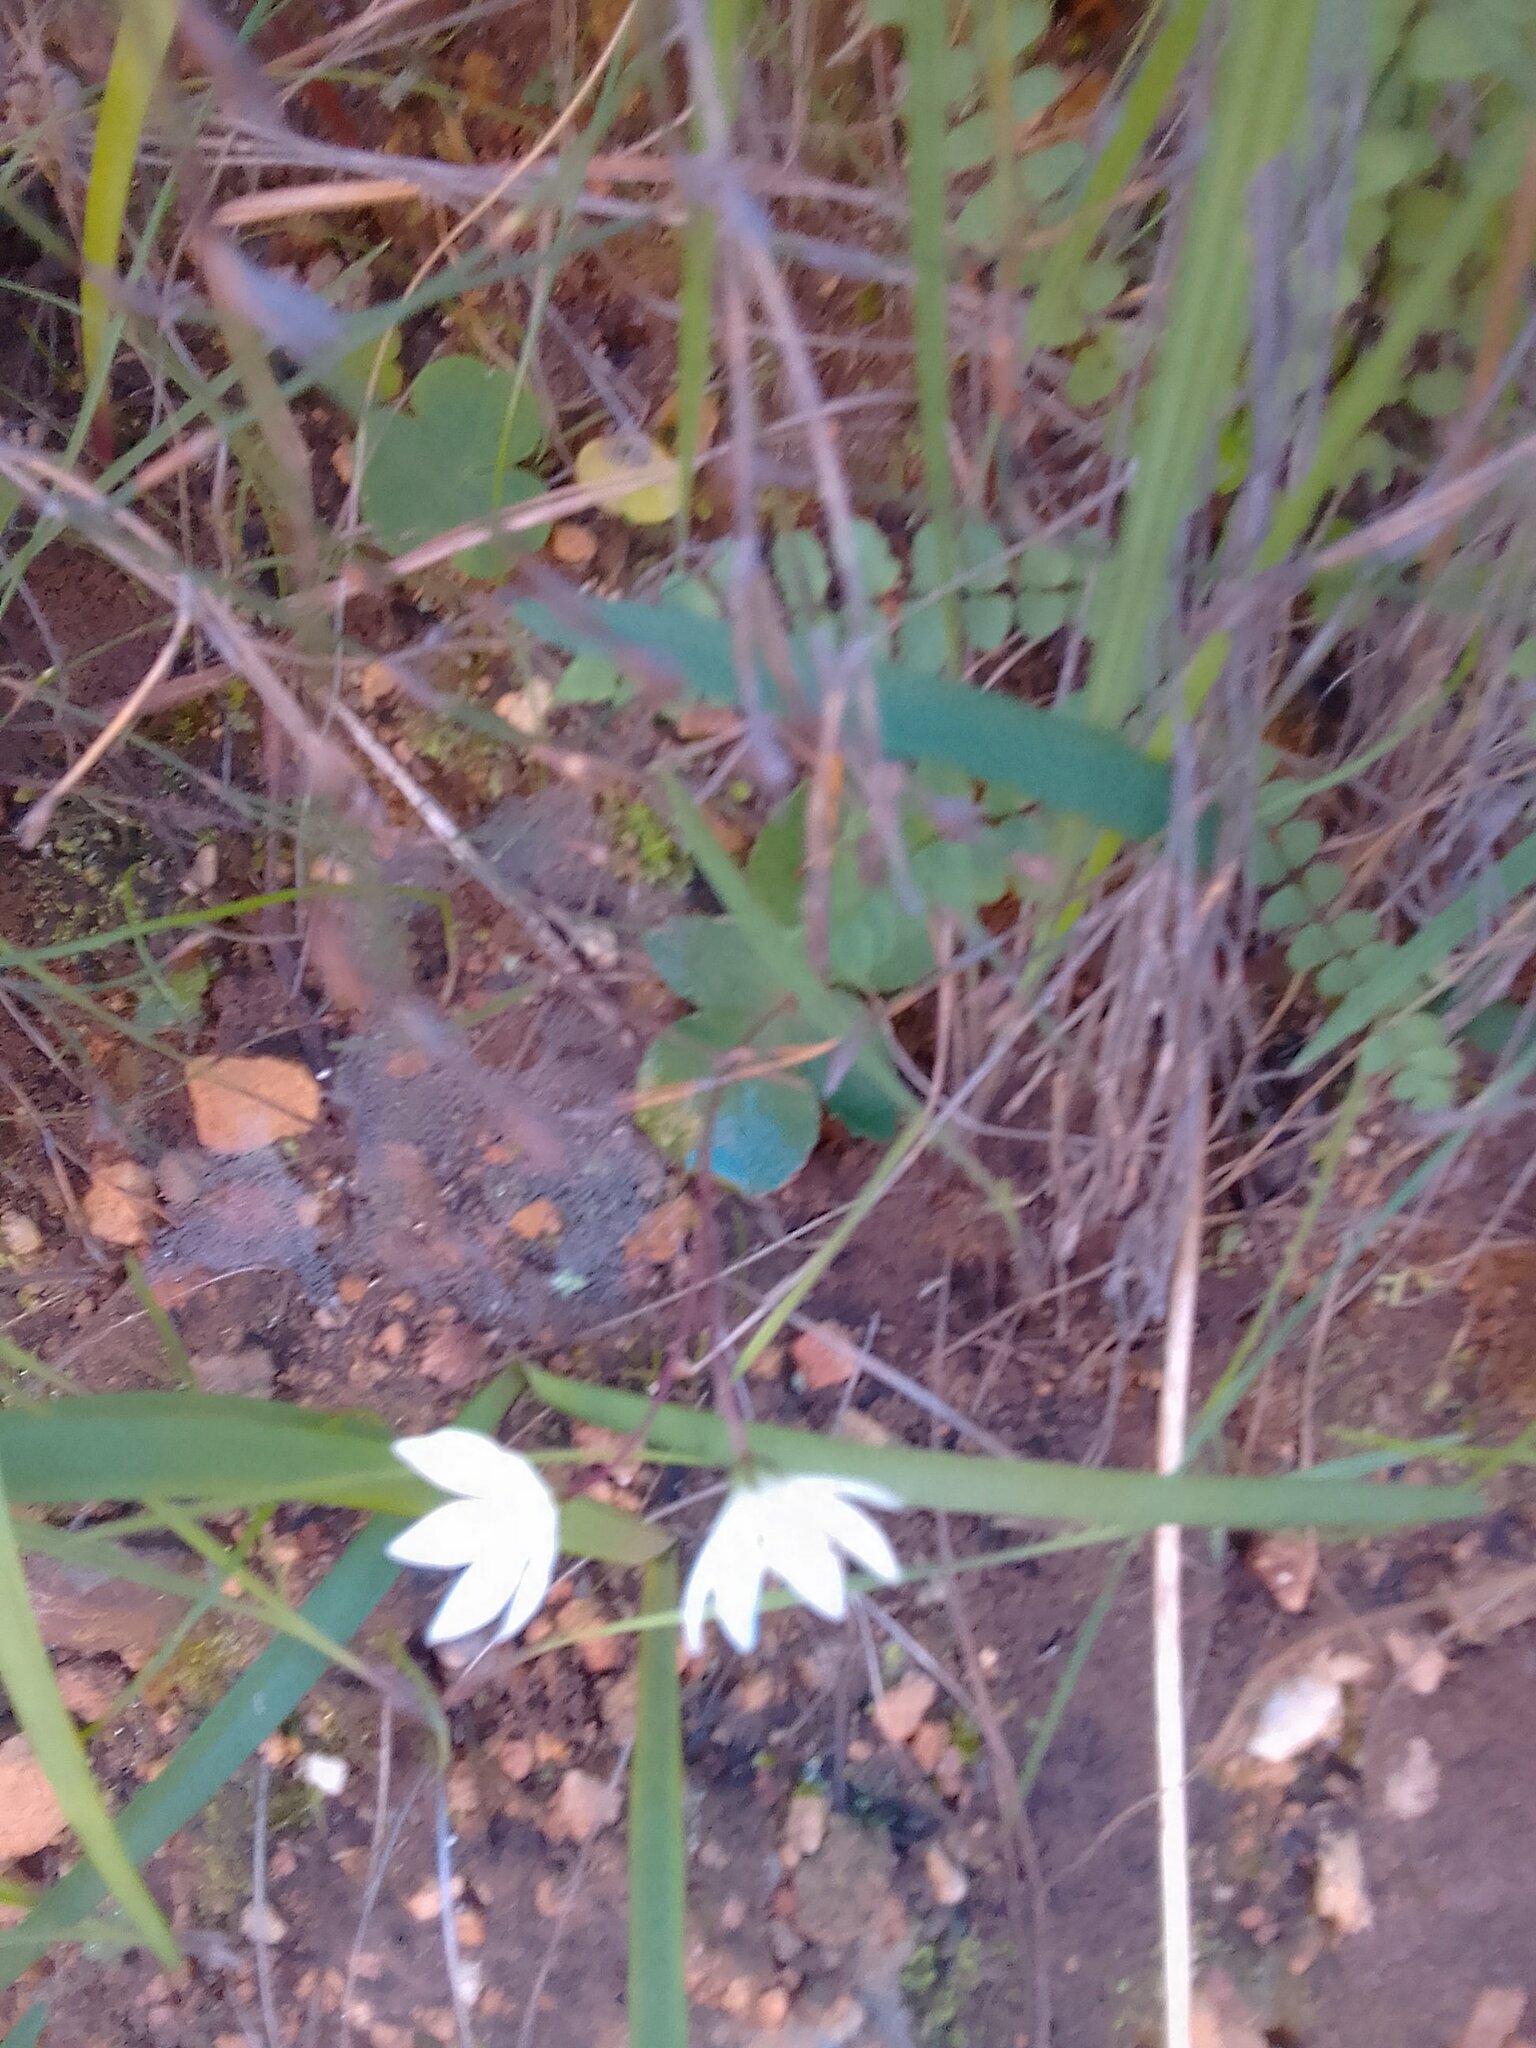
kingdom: Plantae
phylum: Tracheophyta
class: Magnoliopsida
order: Saxifragales
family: Crassulaceae
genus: Crassula
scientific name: Crassula capensis
